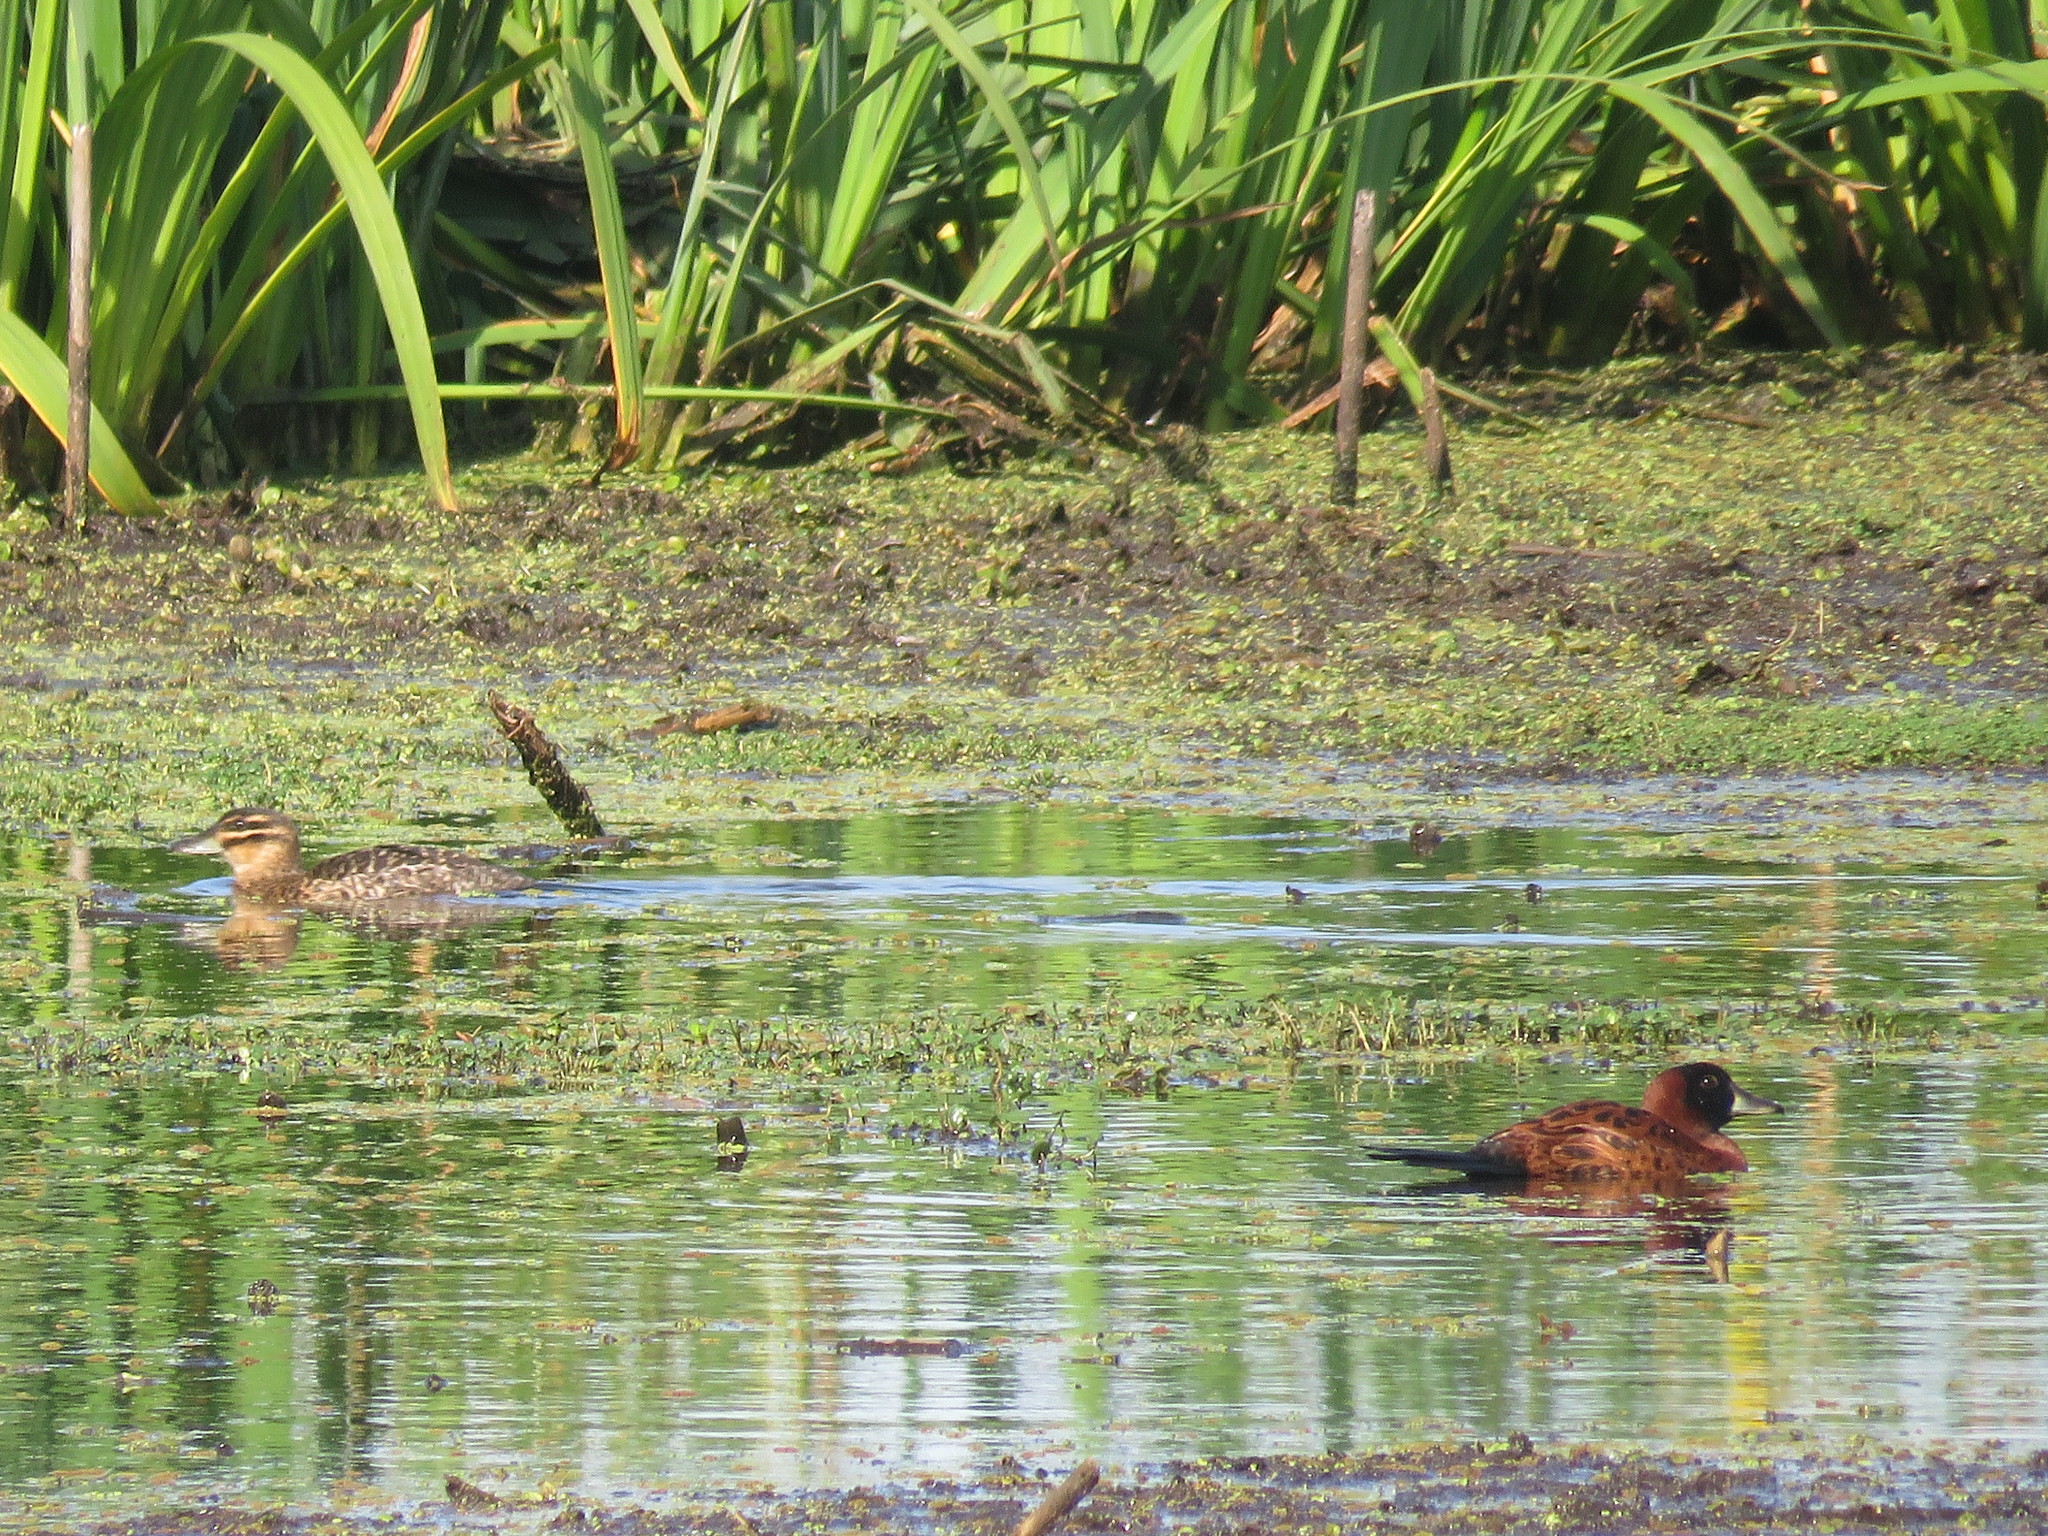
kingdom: Animalia
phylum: Chordata
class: Aves
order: Anseriformes
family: Anatidae
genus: Nomonyx
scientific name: Nomonyx dominicus
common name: Masked duck
